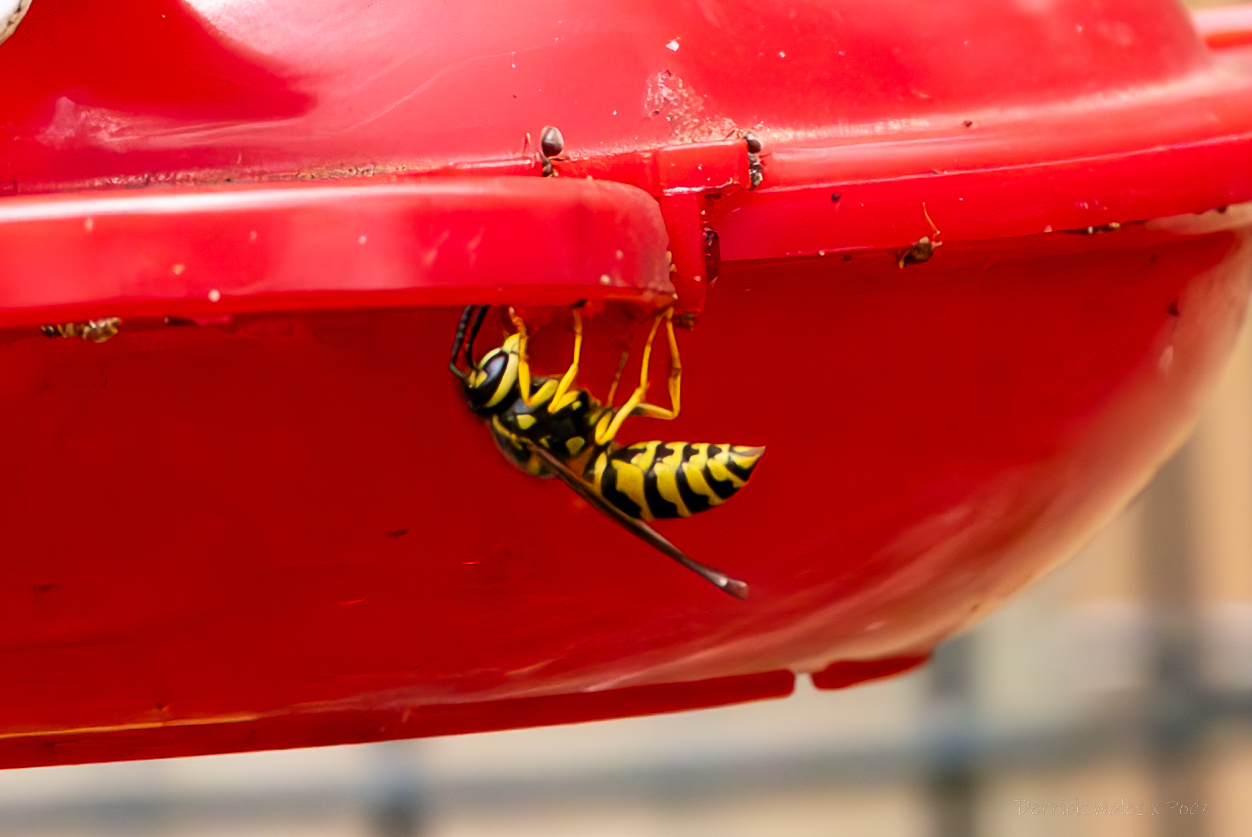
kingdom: Animalia
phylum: Arthropoda
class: Insecta
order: Hymenoptera
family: Vespidae
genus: Vespula
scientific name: Vespula maculifrons
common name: Eastern yellowjacket
